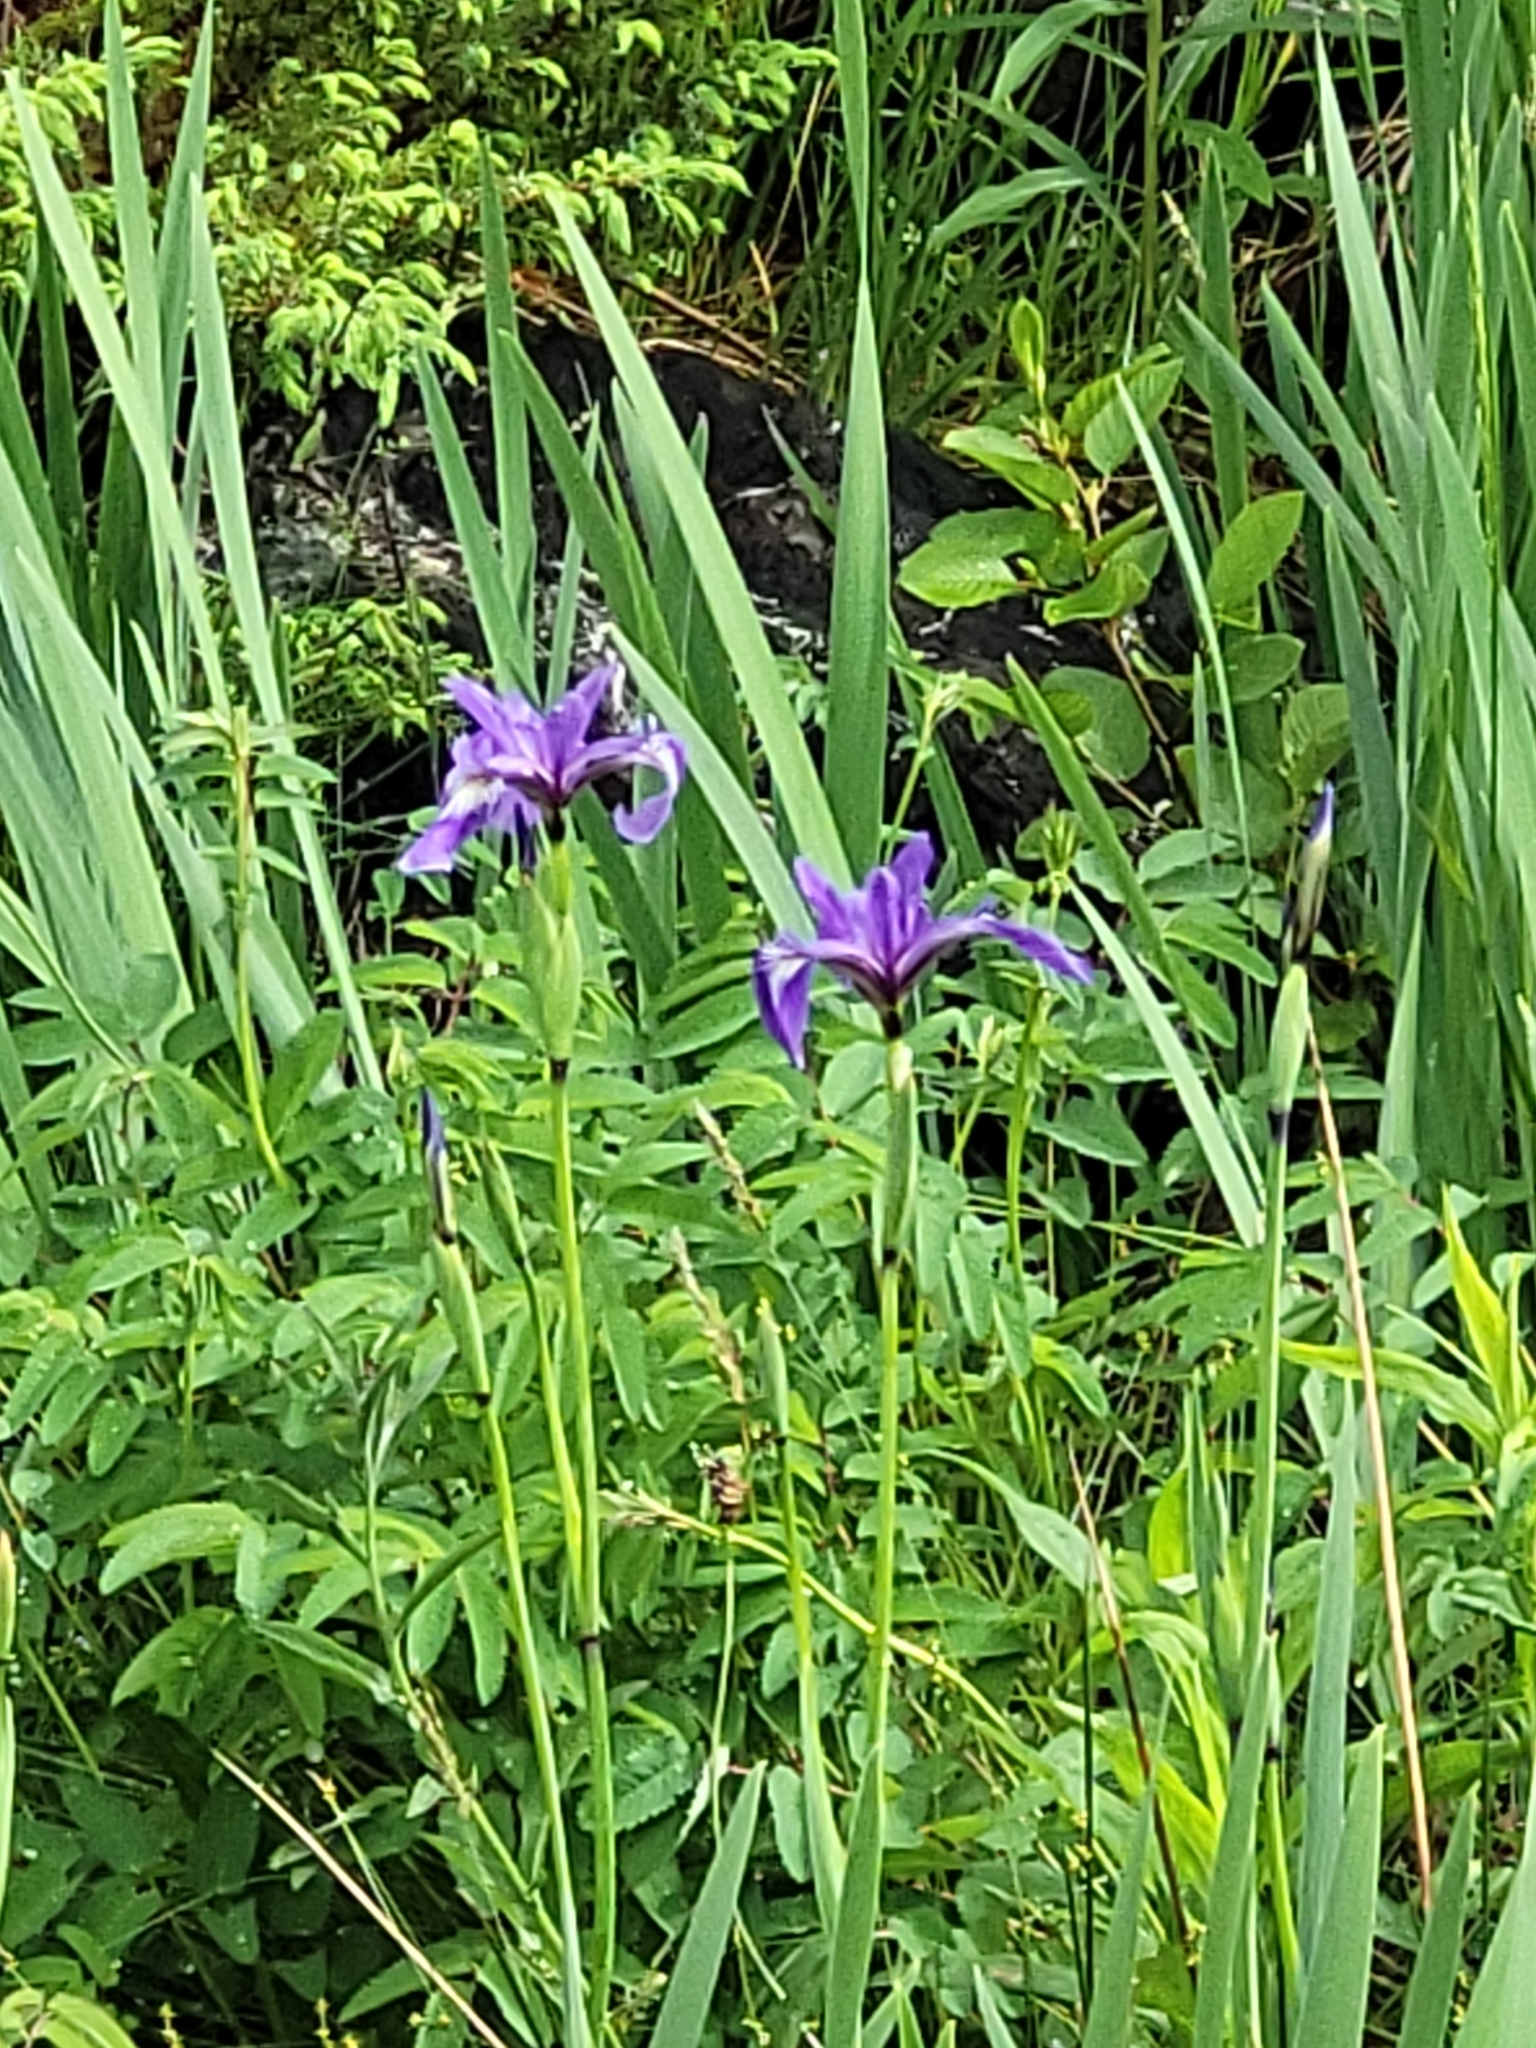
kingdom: Plantae
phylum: Tracheophyta
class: Liliopsida
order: Asparagales
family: Iridaceae
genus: Iris
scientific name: Iris versicolor
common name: Purple iris
